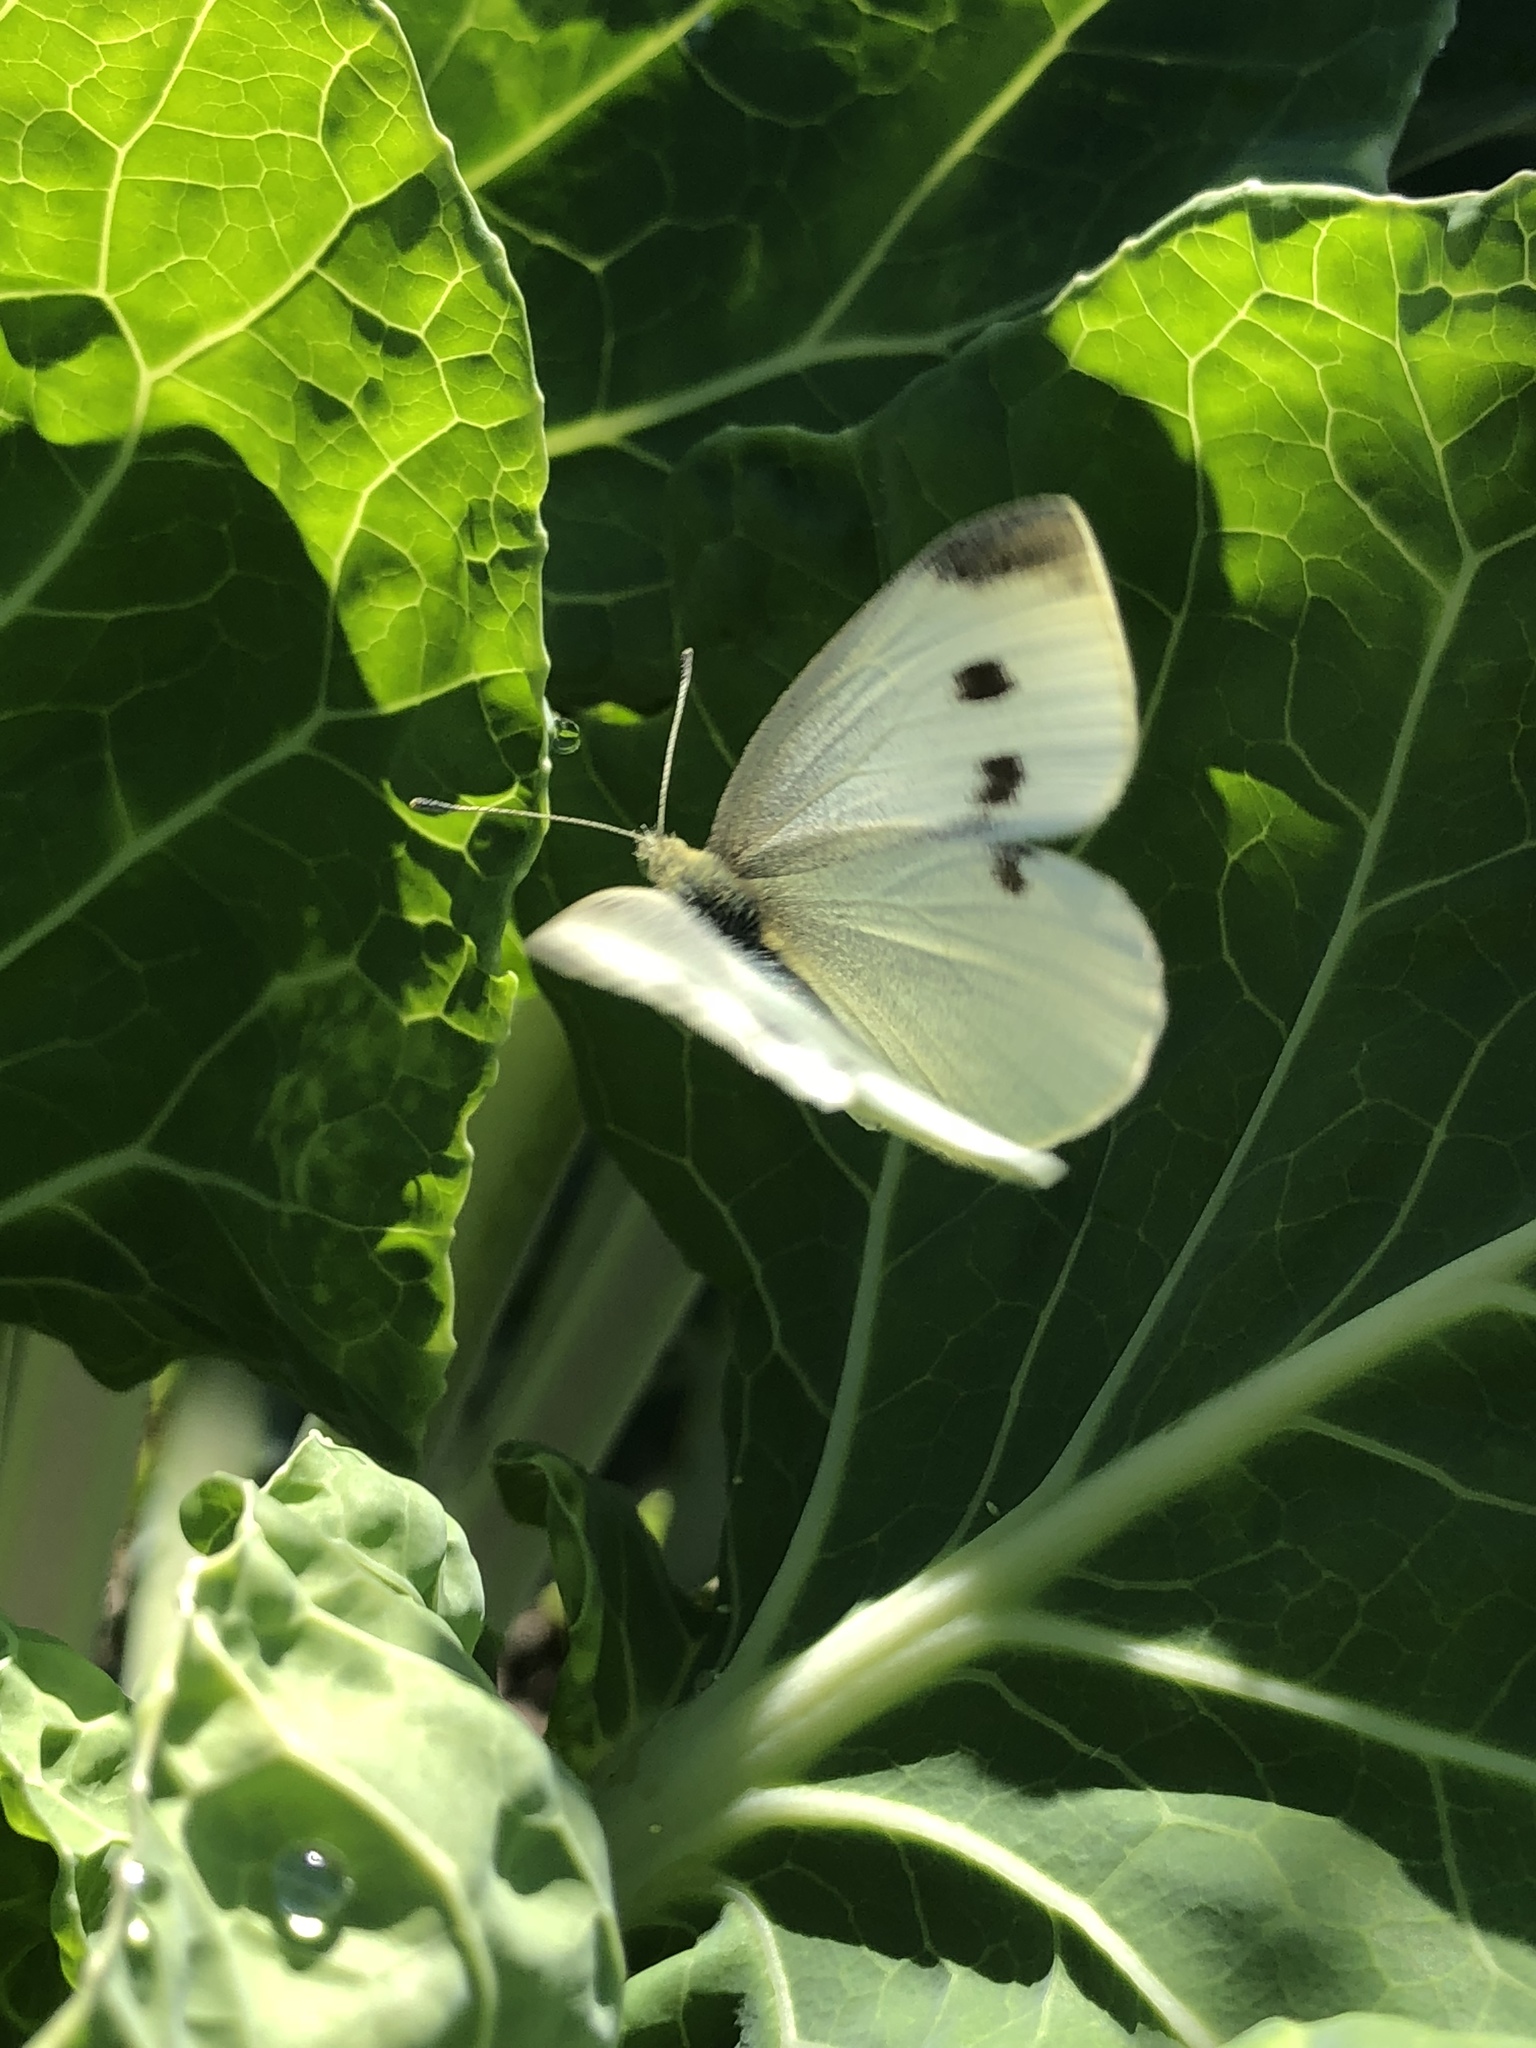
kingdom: Animalia
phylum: Arthropoda
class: Insecta
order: Lepidoptera
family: Pieridae
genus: Pieris
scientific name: Pieris rapae
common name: Small white
